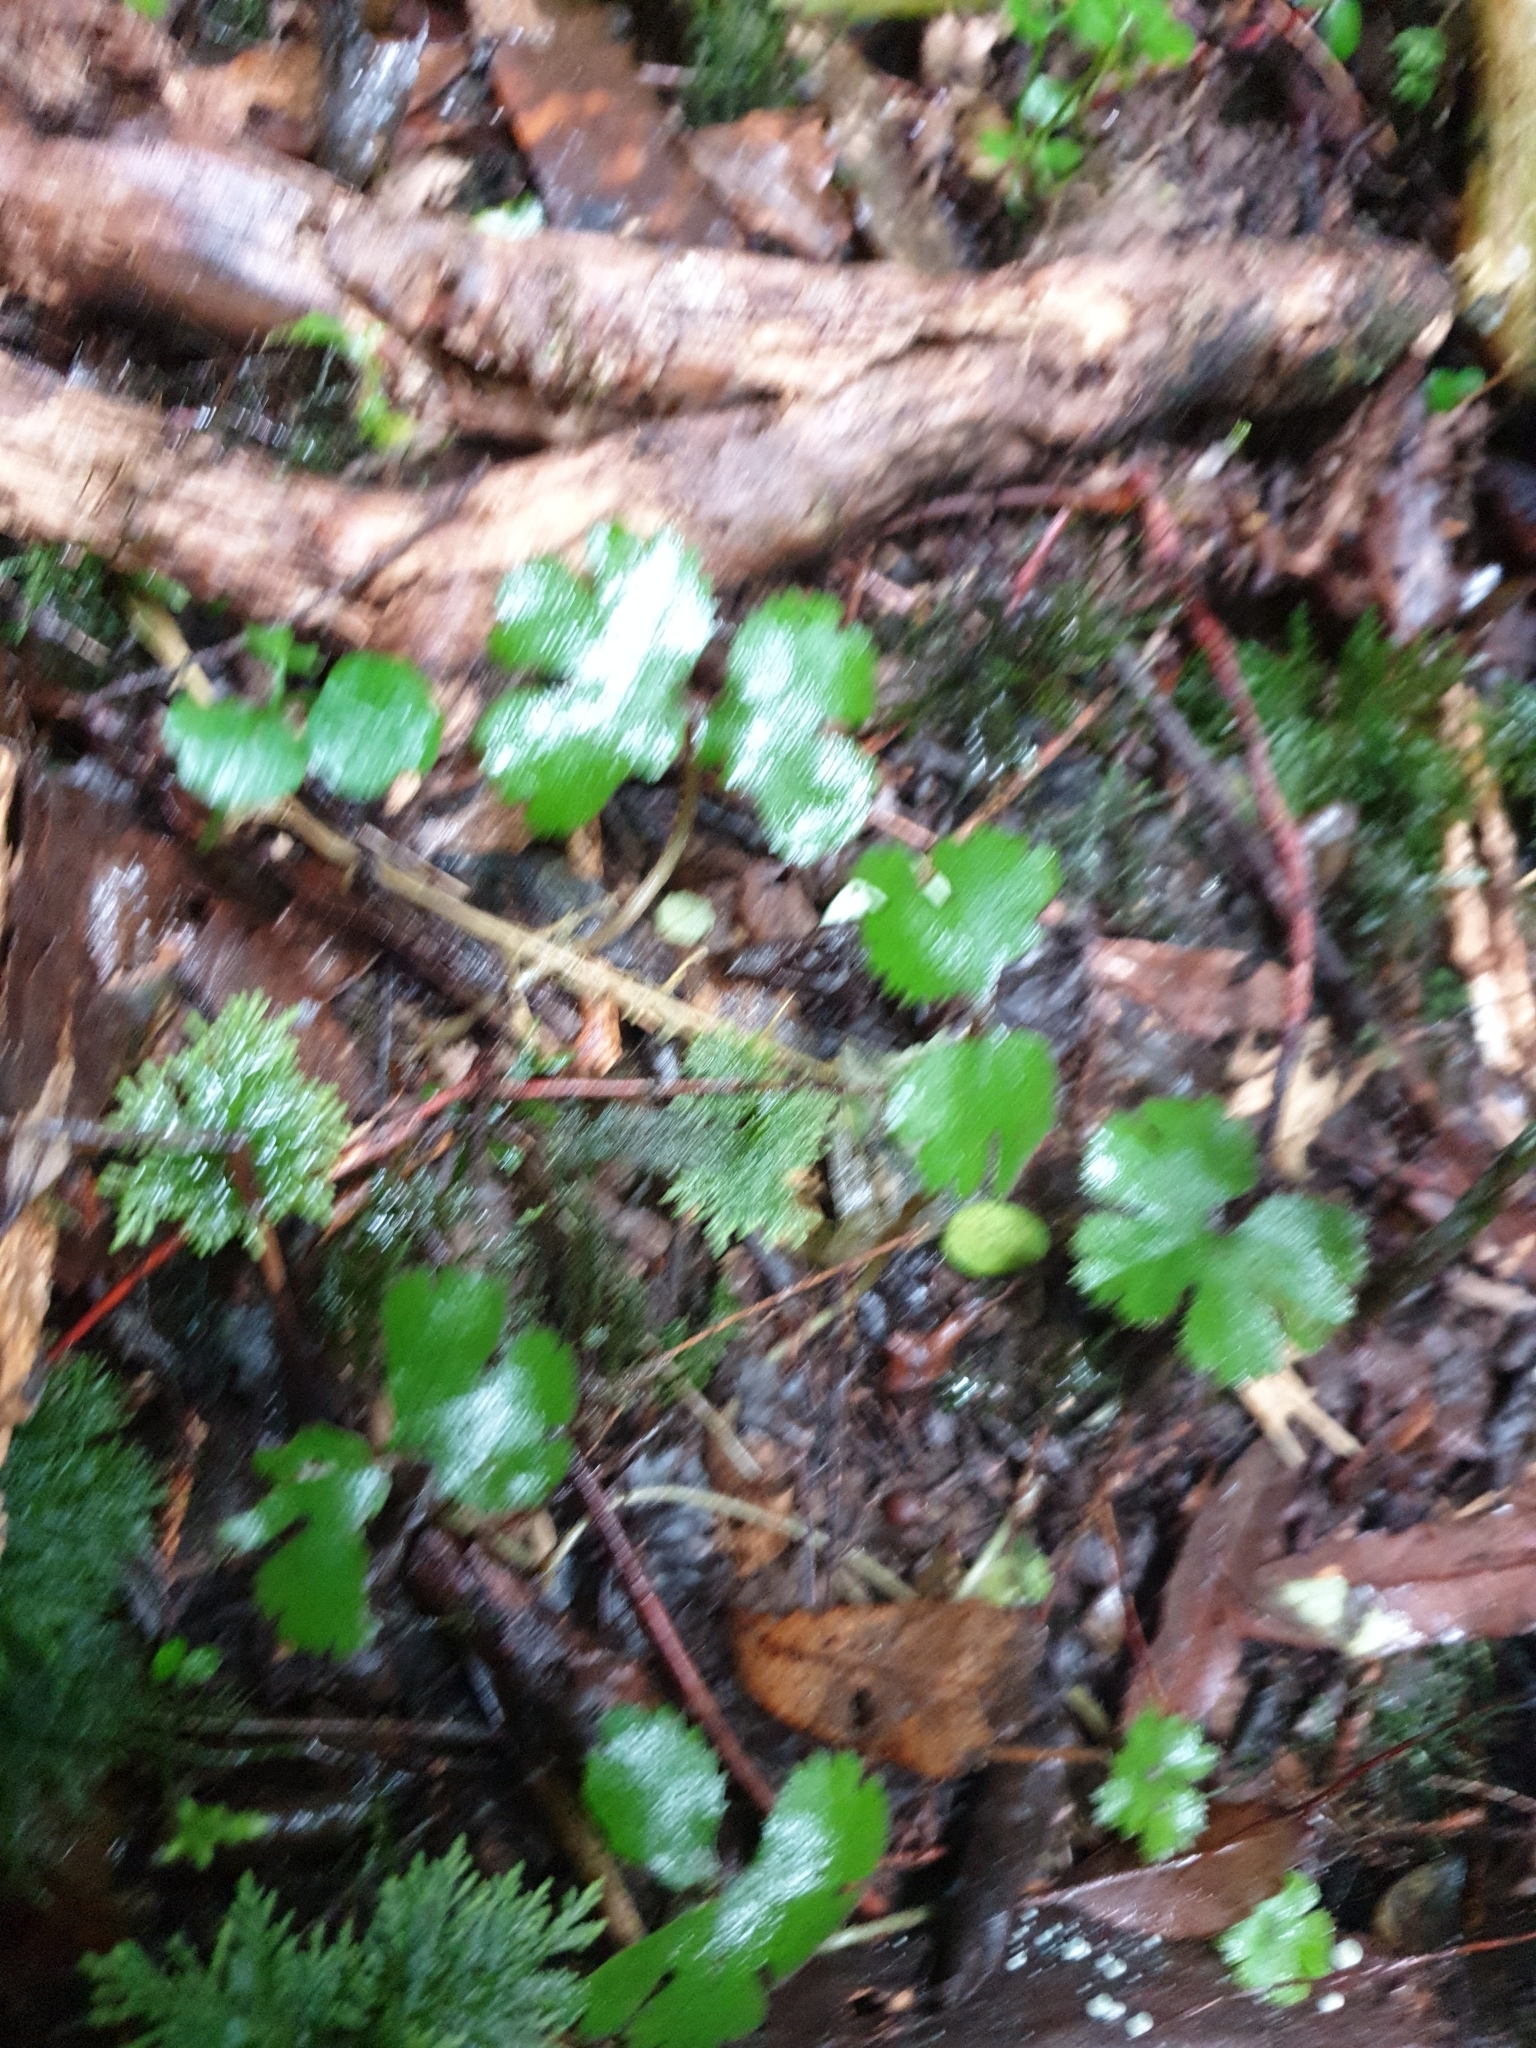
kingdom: Plantae
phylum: Tracheophyta
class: Magnoliopsida
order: Apiales
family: Araliaceae
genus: Hydrocotyle
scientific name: Hydrocotyle elongata
